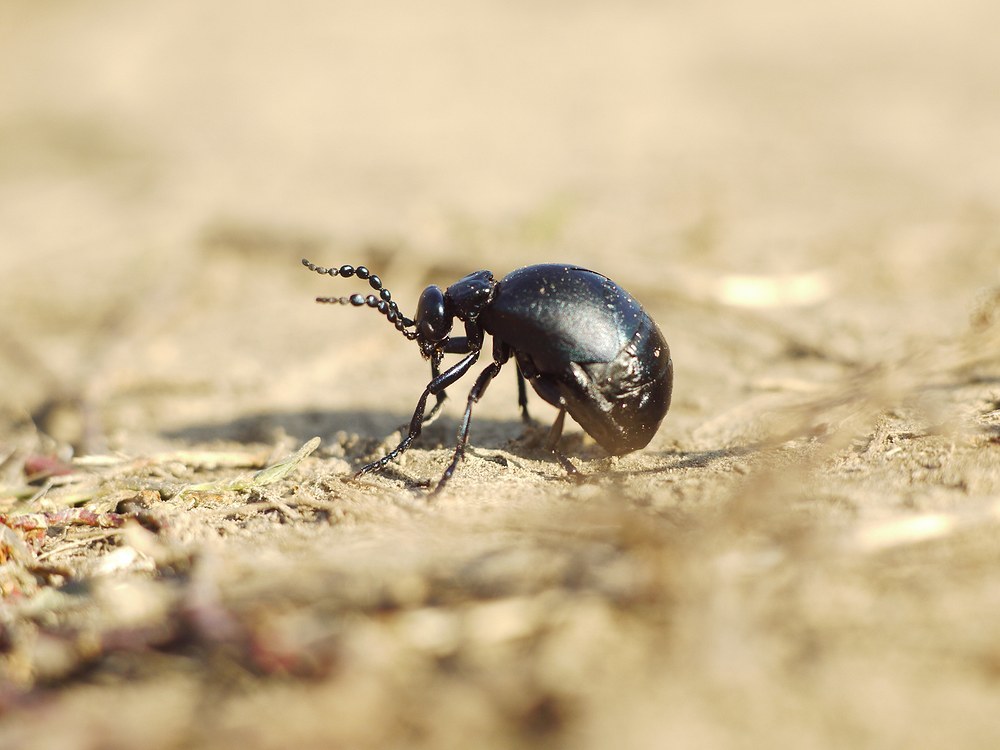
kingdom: Animalia
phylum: Arthropoda
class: Insecta
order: Coleoptera
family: Meloidae
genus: Meloe
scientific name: Meloe autumnalis
